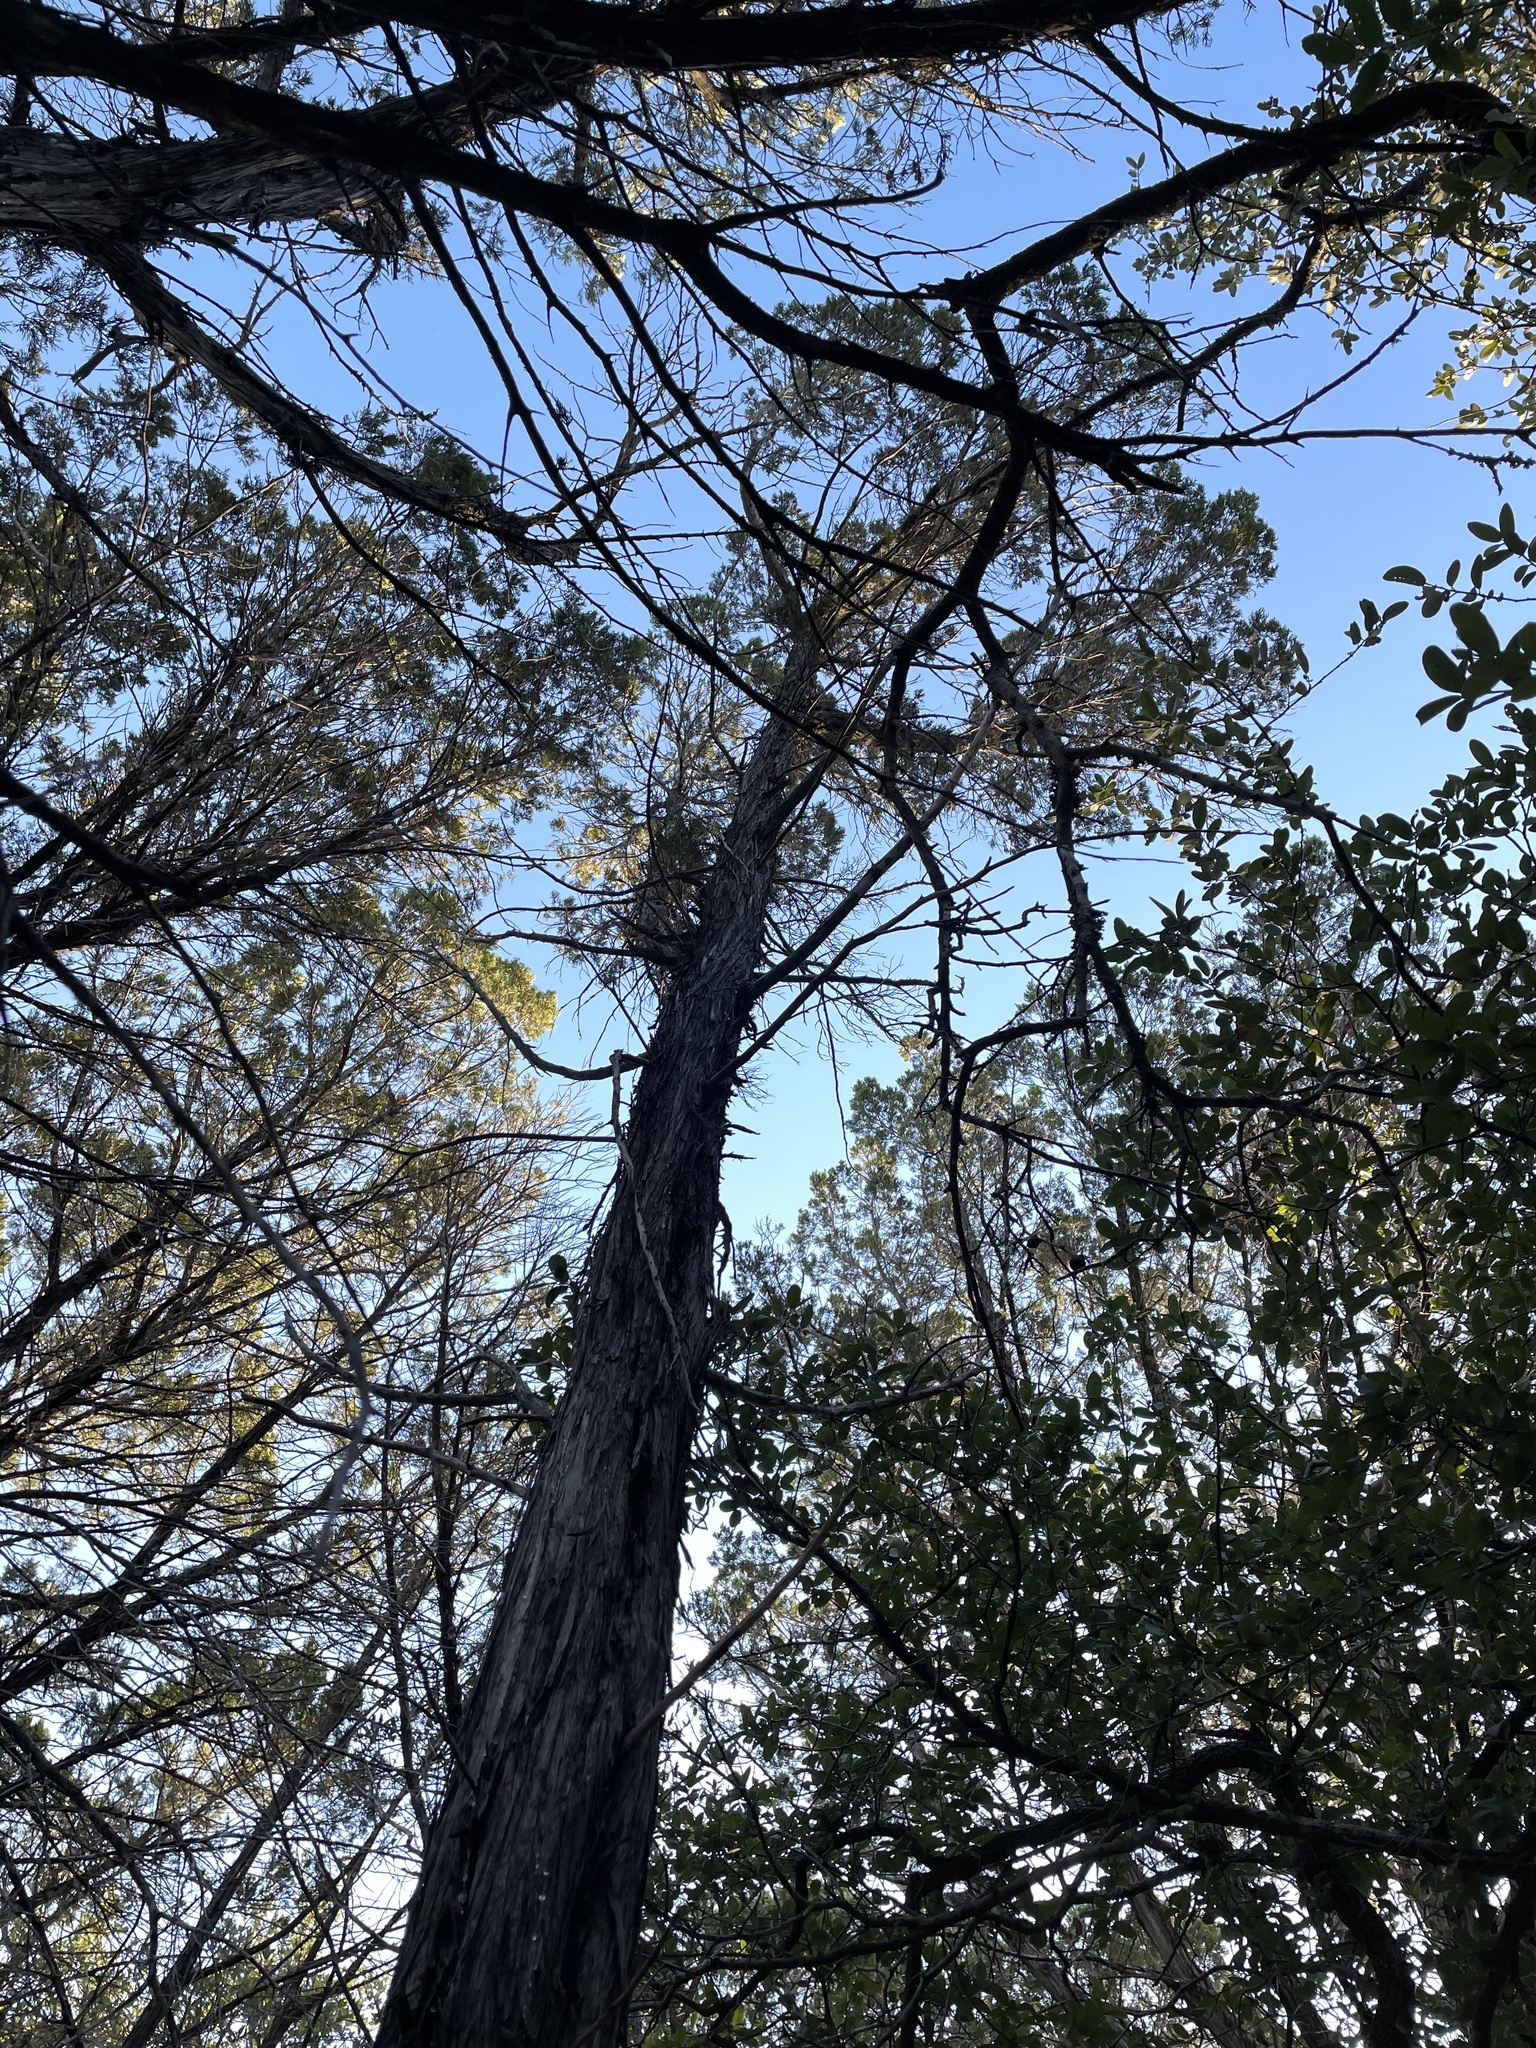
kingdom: Plantae
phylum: Tracheophyta
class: Pinopsida
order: Pinales
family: Cupressaceae
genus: Juniperus
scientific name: Juniperus ashei
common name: Mexican juniper
